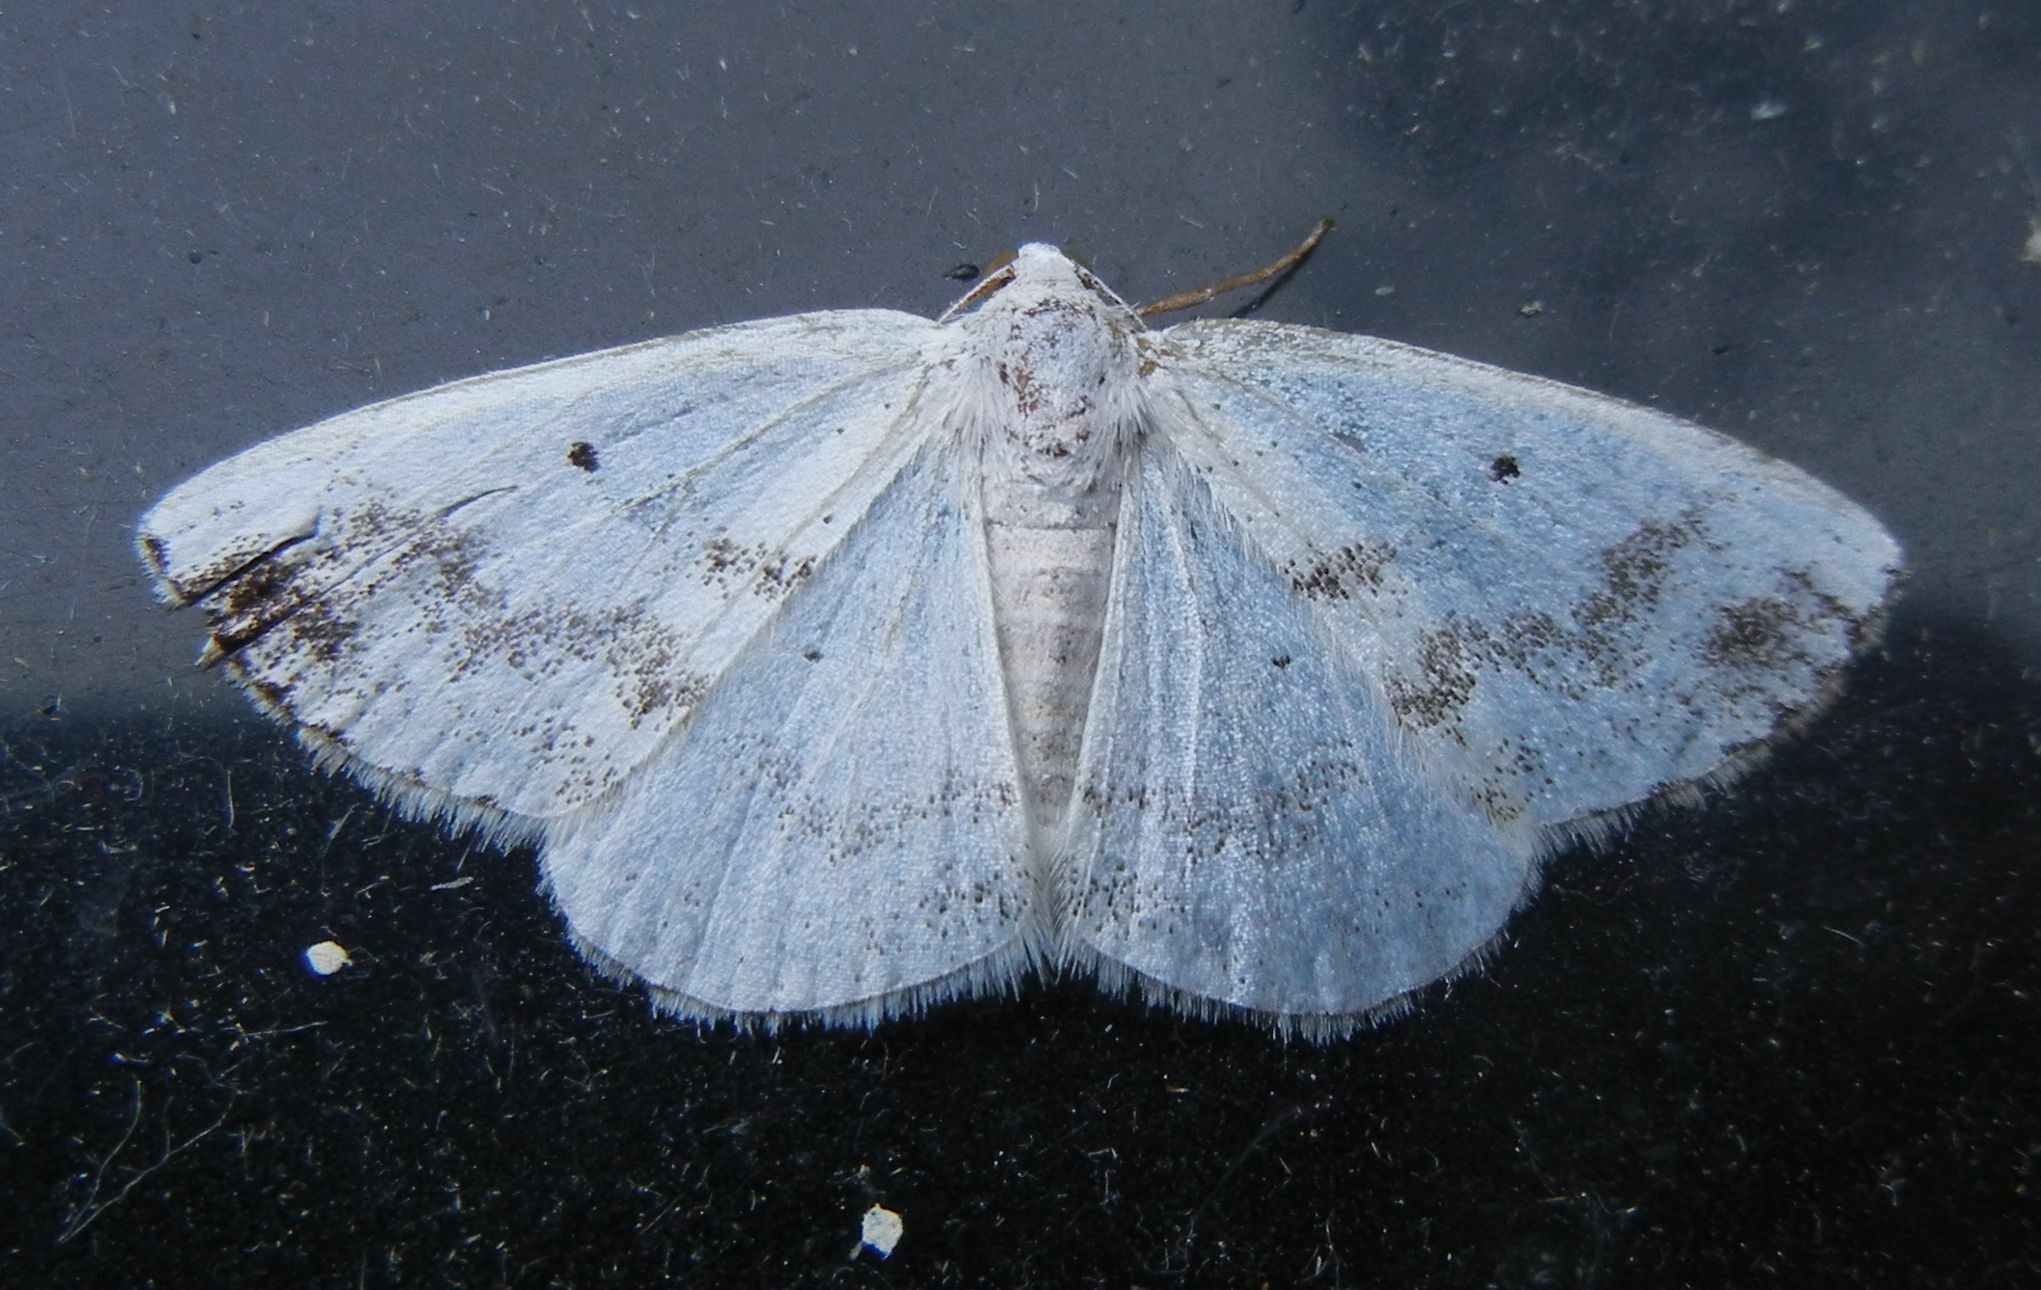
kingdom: Animalia
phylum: Arthropoda
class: Insecta
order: Lepidoptera
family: Geometridae
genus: Lomographa
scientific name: Lomographa temerata
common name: Clouded silver
